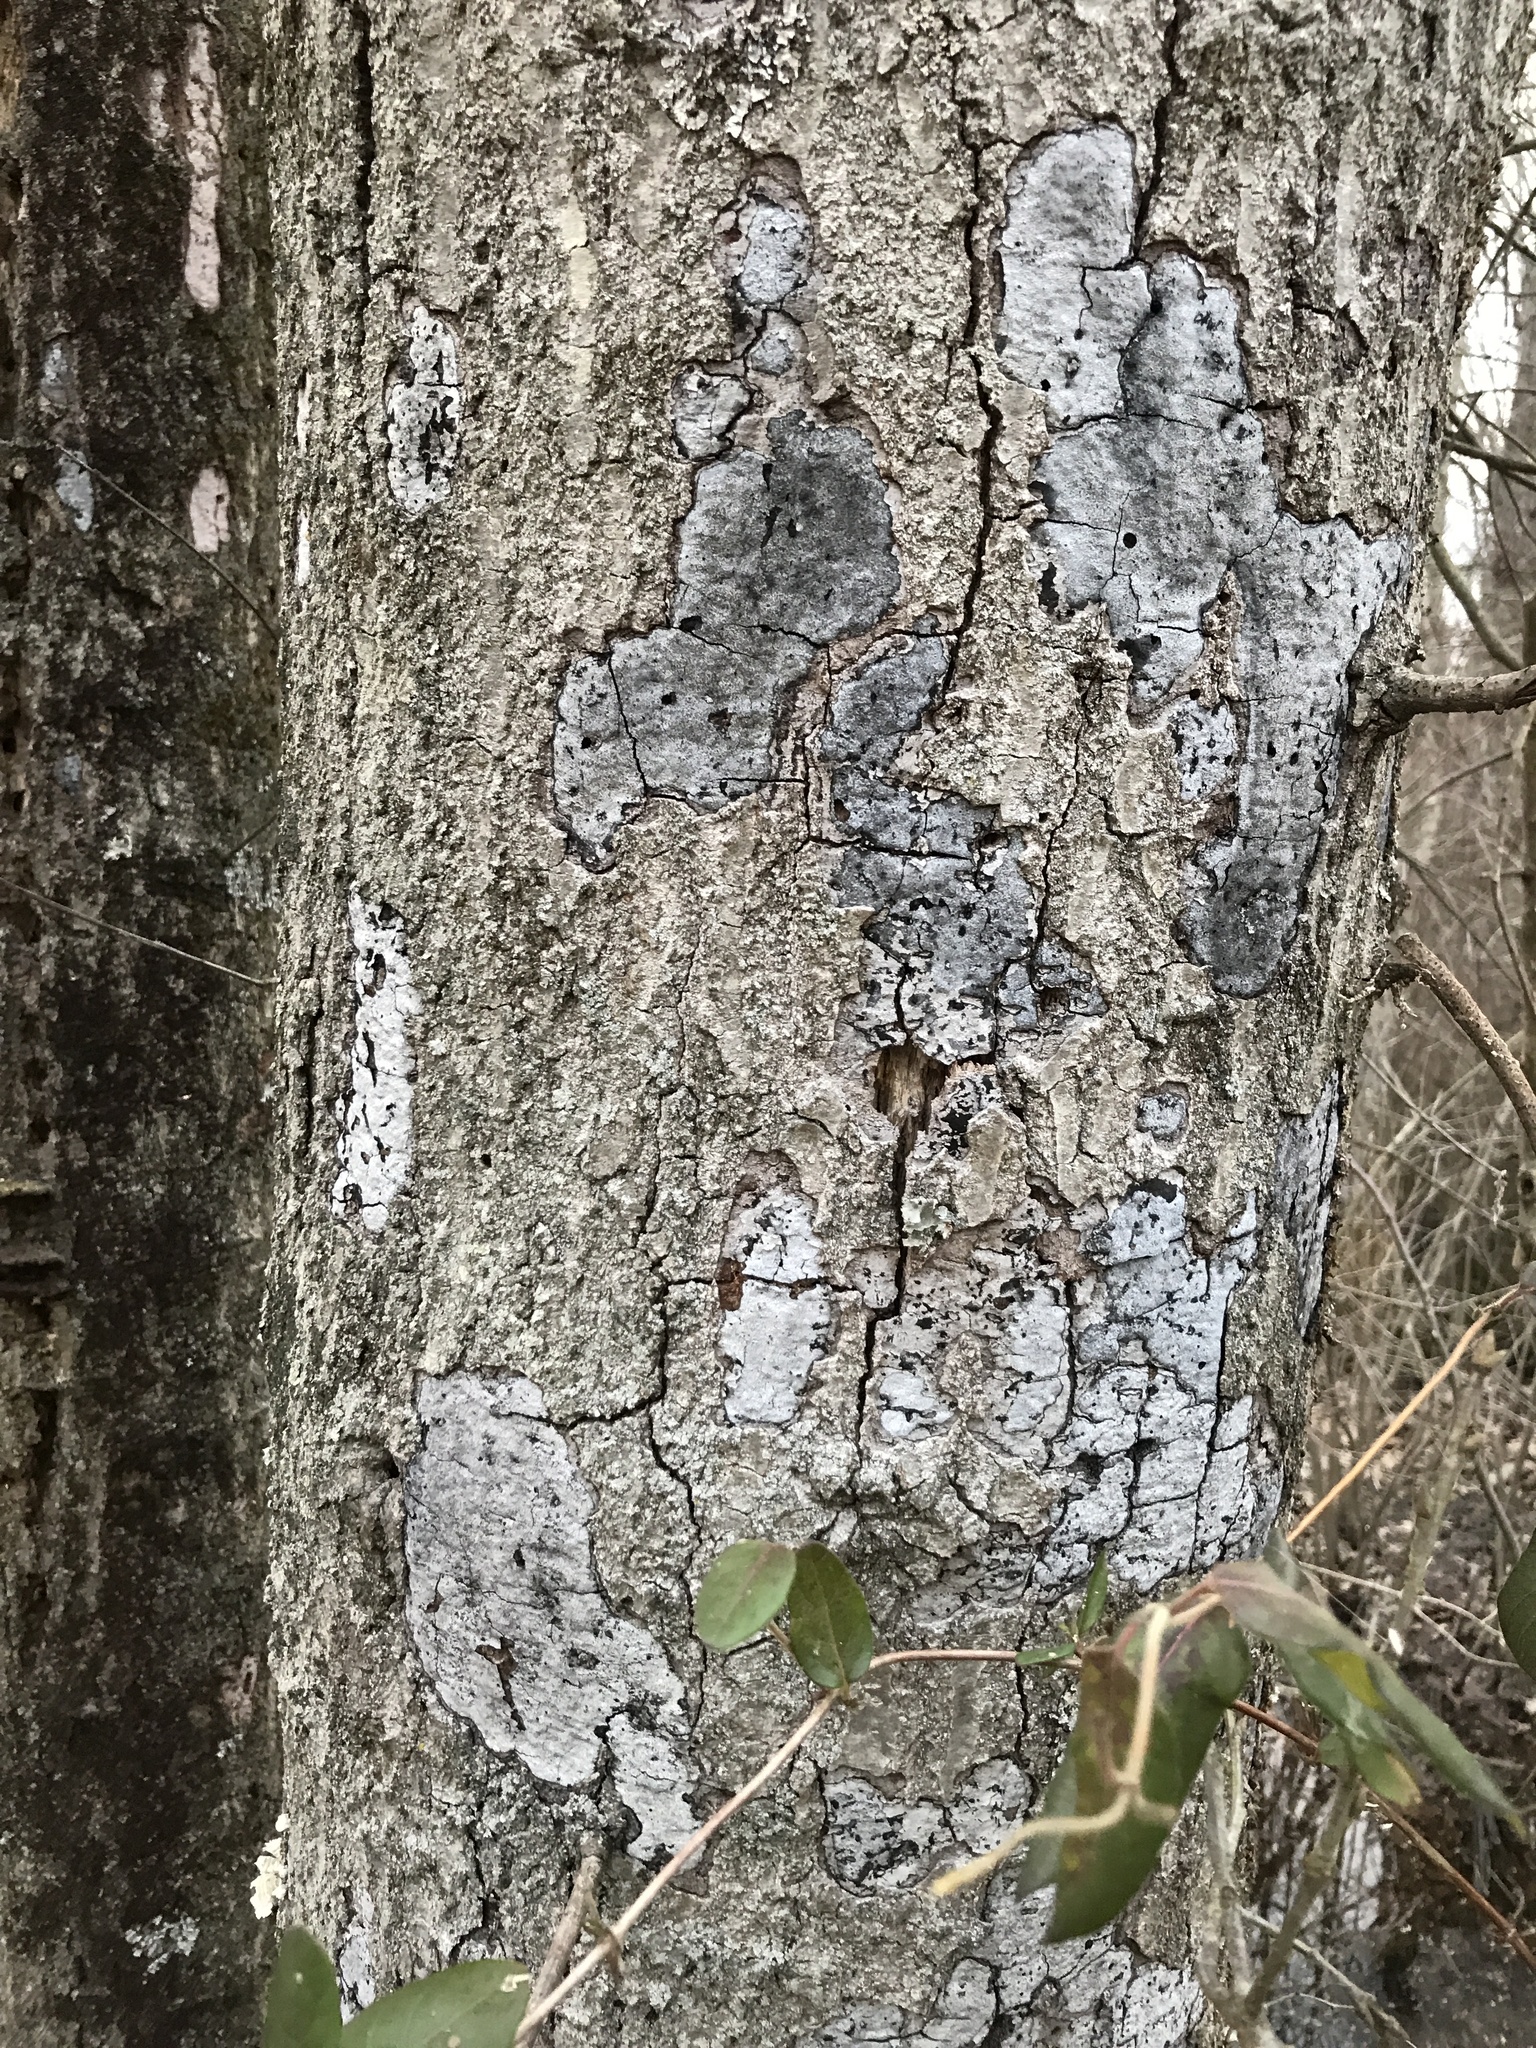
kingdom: Fungi
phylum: Ascomycota
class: Sordariomycetes
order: Xylariales
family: Graphostromataceae
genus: Biscogniauxia
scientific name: Biscogniauxia atropunctata
